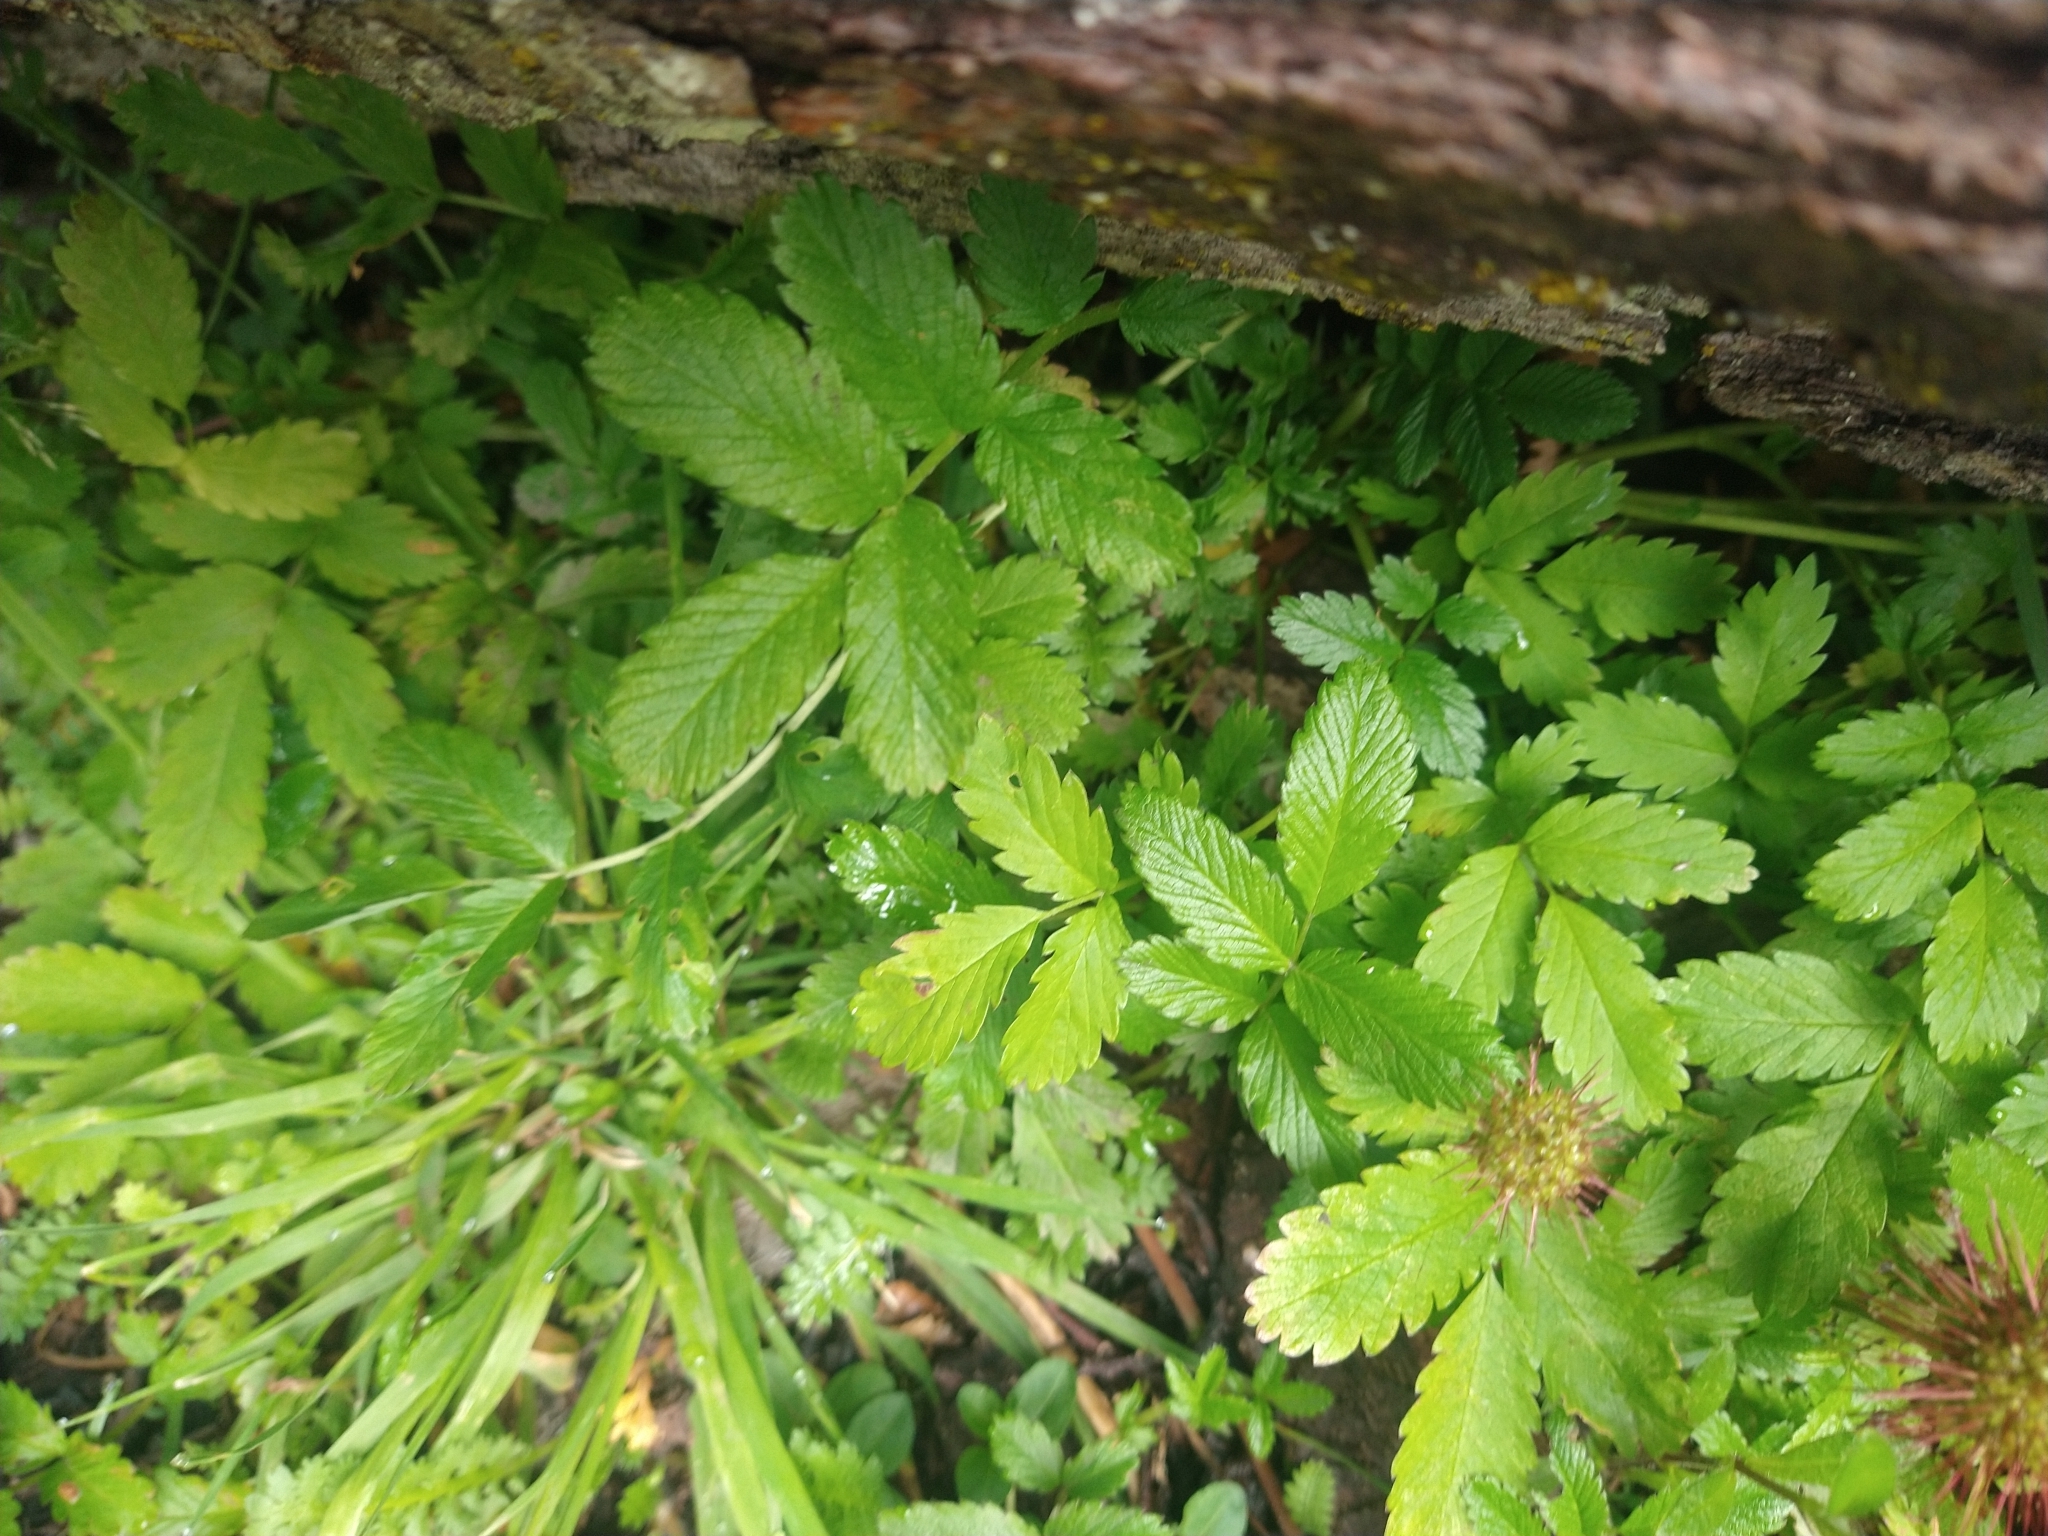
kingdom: Plantae
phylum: Tracheophyta
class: Magnoliopsida
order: Rosales
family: Rosaceae
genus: Acaena
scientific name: Acaena ovalifolia
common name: Two-spined acaena
